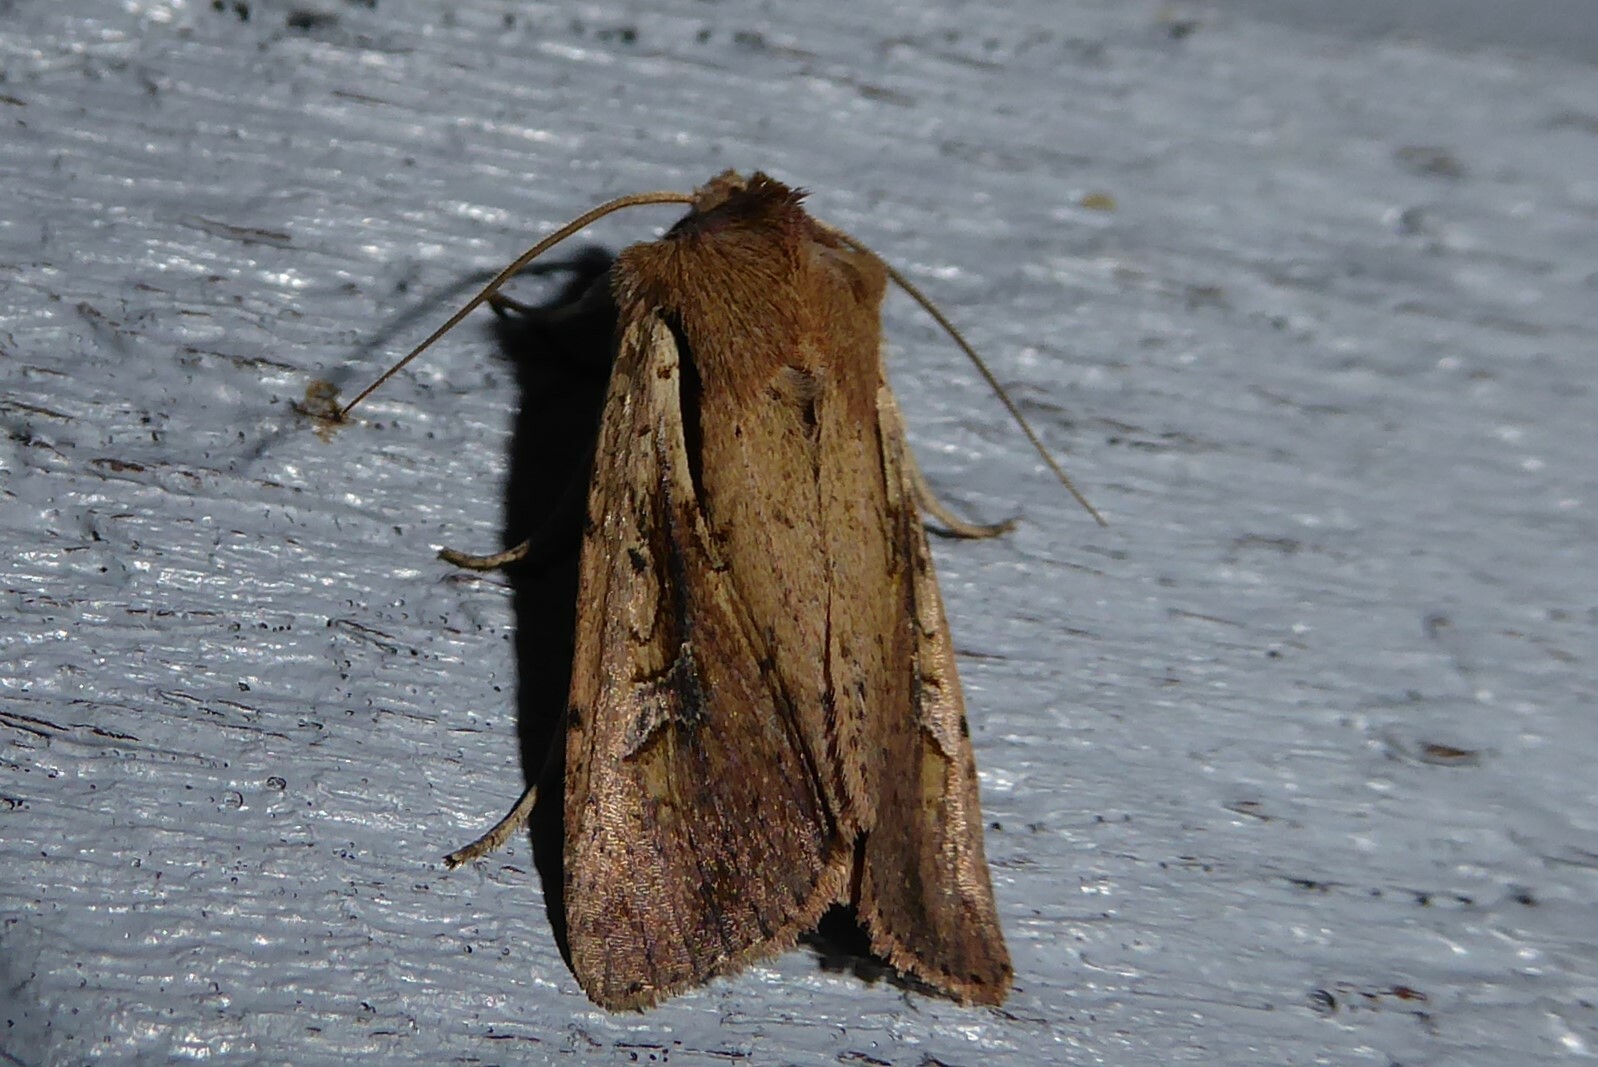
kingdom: Animalia
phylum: Arthropoda
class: Insecta
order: Lepidoptera
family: Noctuidae
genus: Ichneutica
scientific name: Ichneutica atristriga
